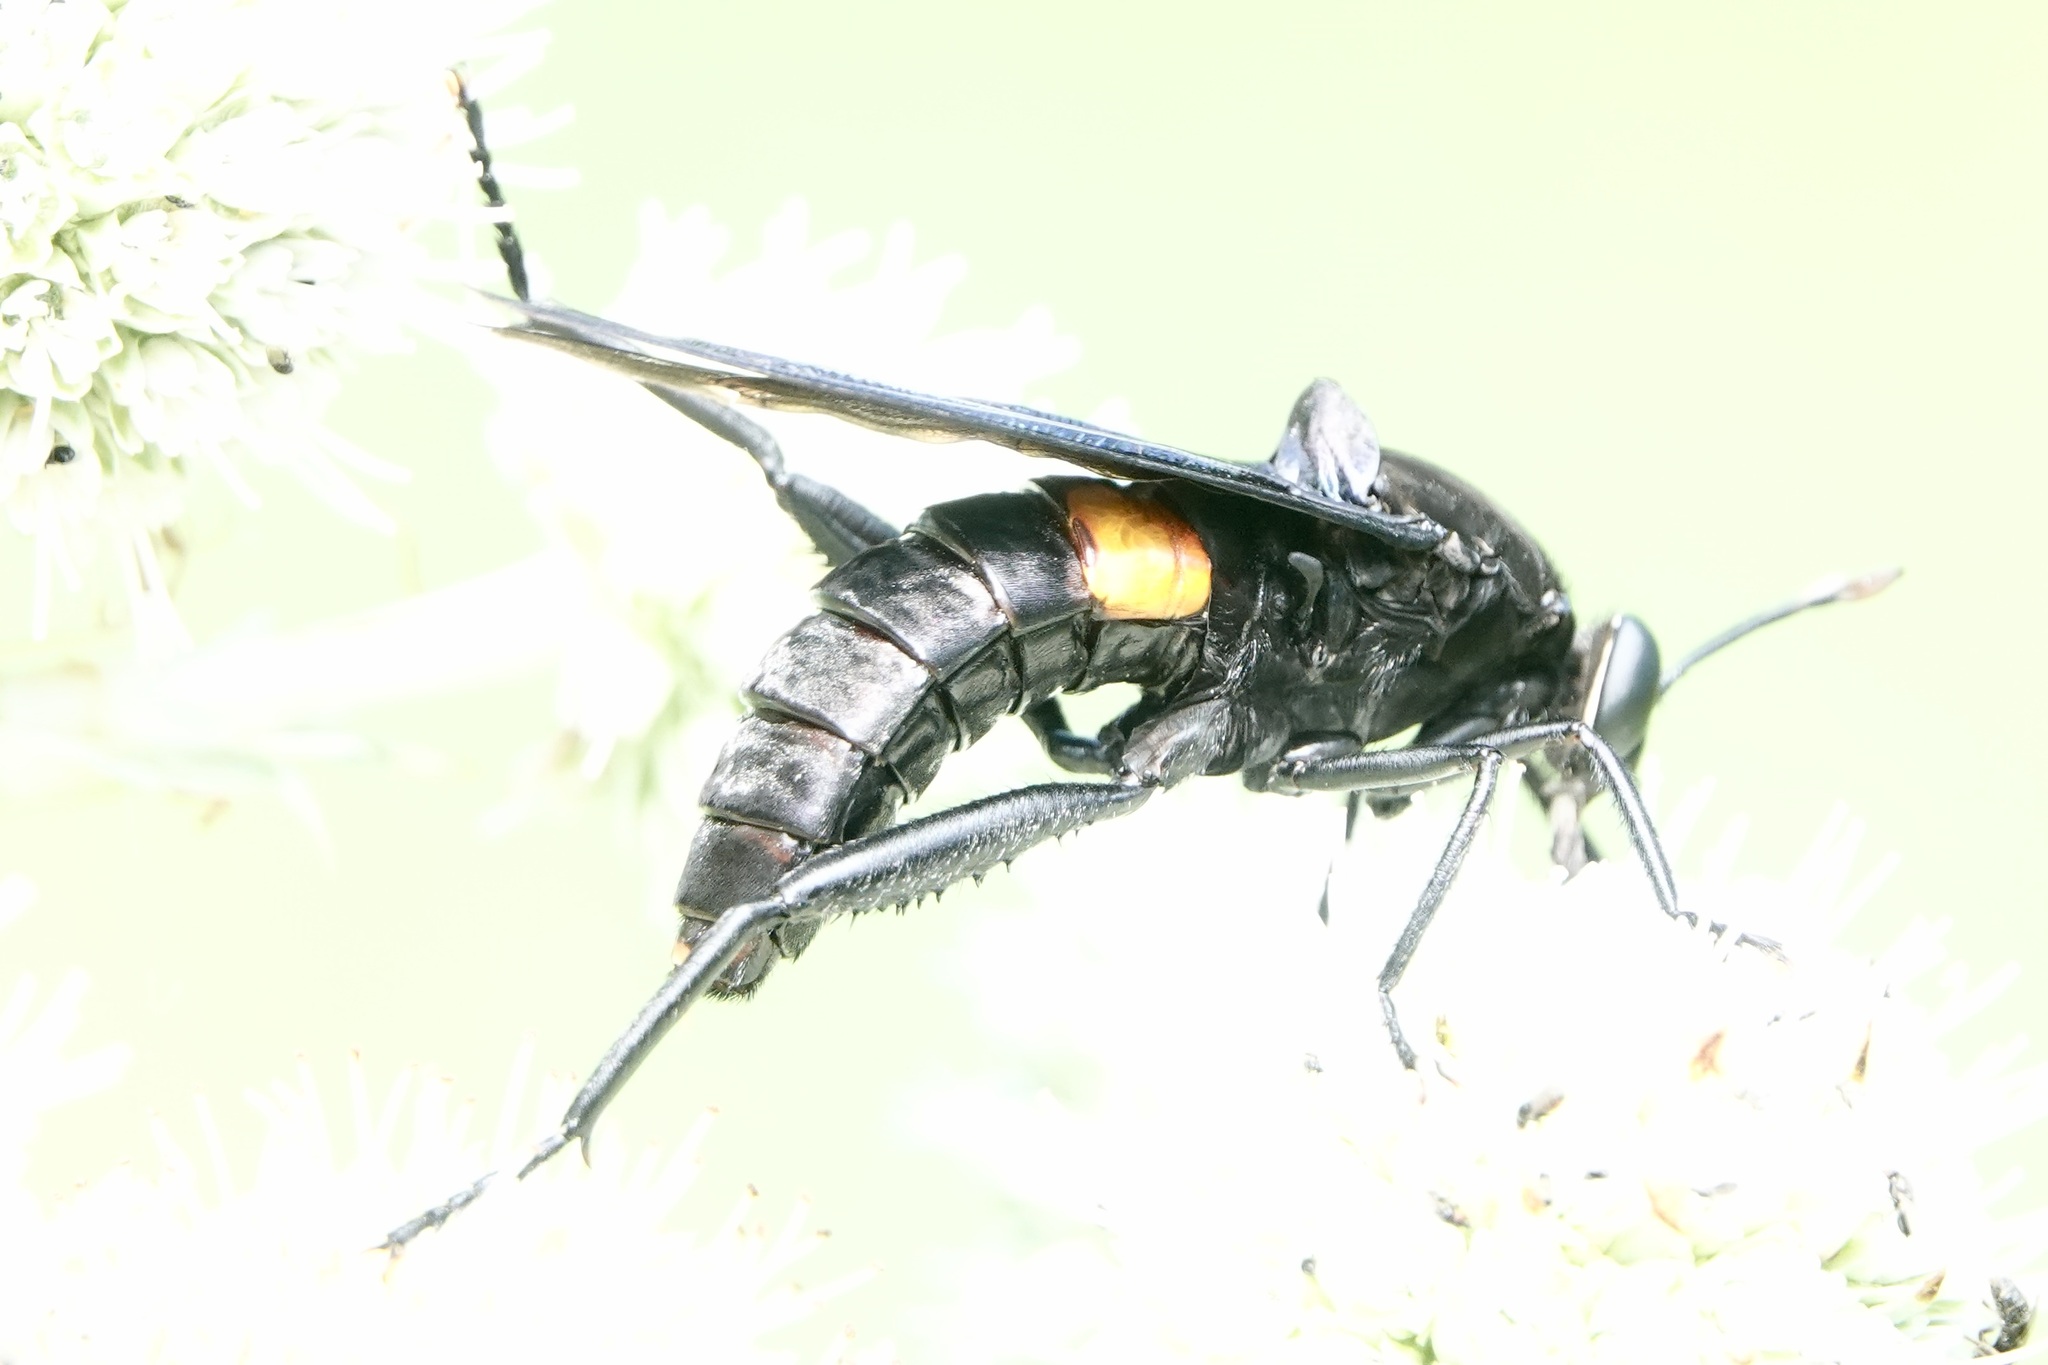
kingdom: Animalia
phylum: Arthropoda
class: Insecta
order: Diptera
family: Mydidae
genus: Mydas
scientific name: Mydas clavatus
